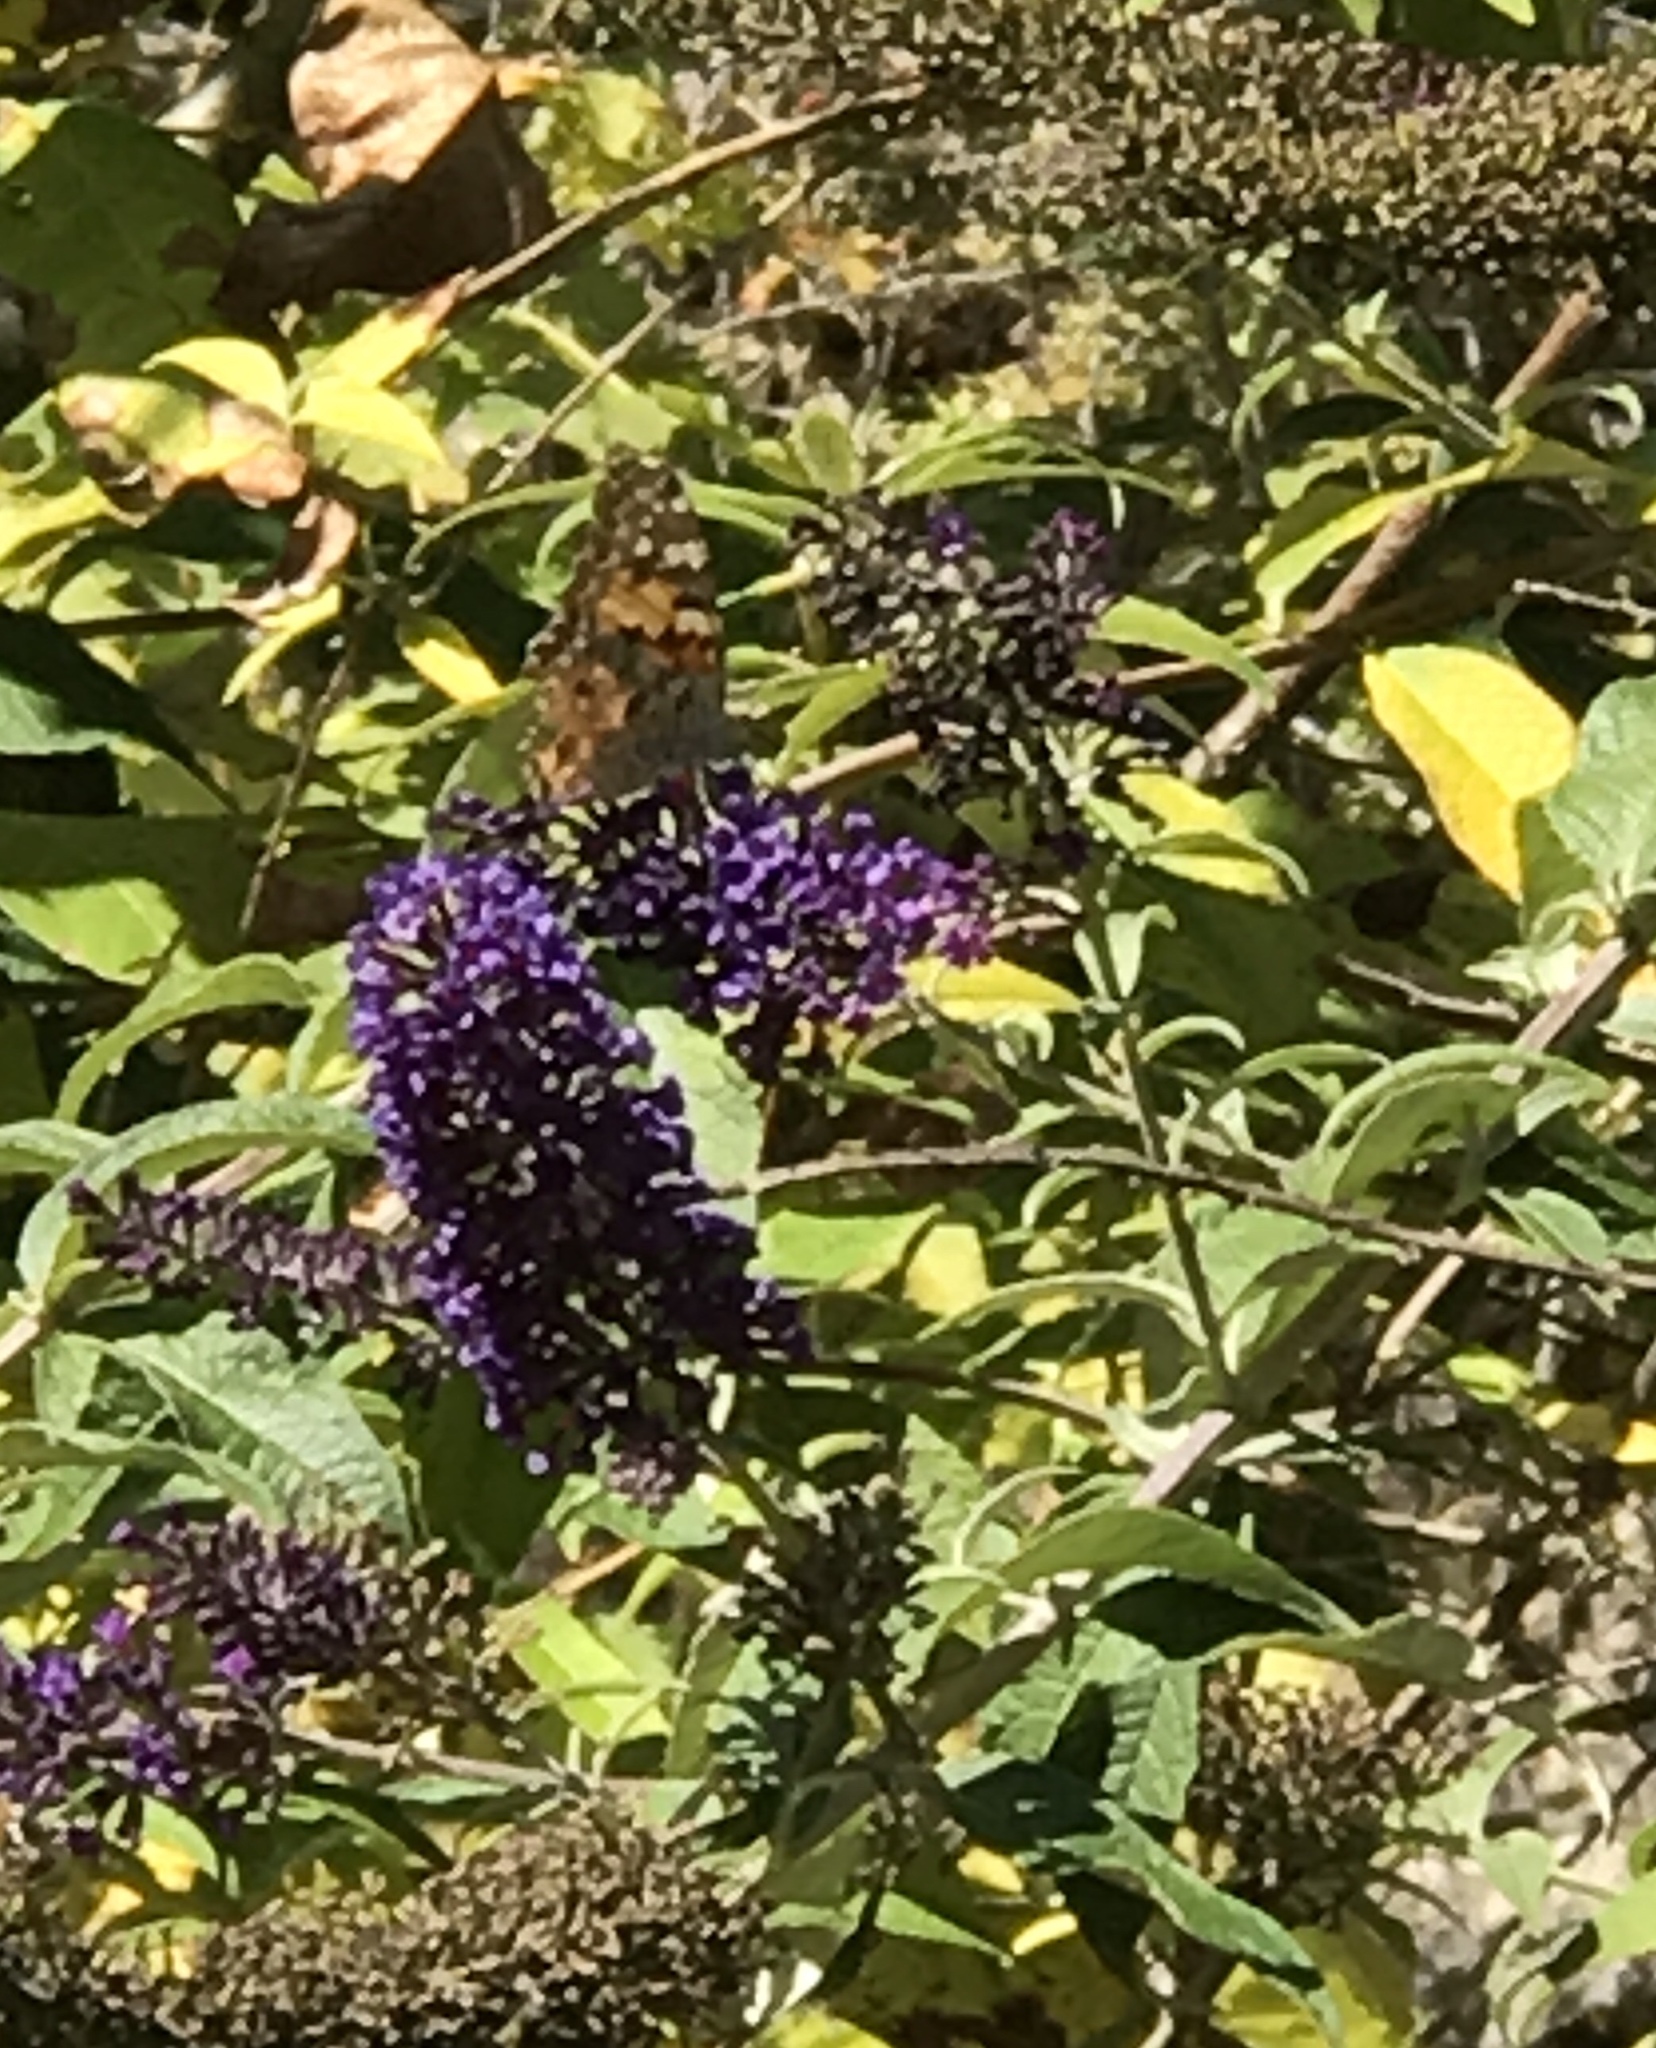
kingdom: Animalia
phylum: Arthropoda
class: Insecta
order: Lepidoptera
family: Nymphalidae
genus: Vanessa
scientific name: Vanessa cardui
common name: Painted lady
